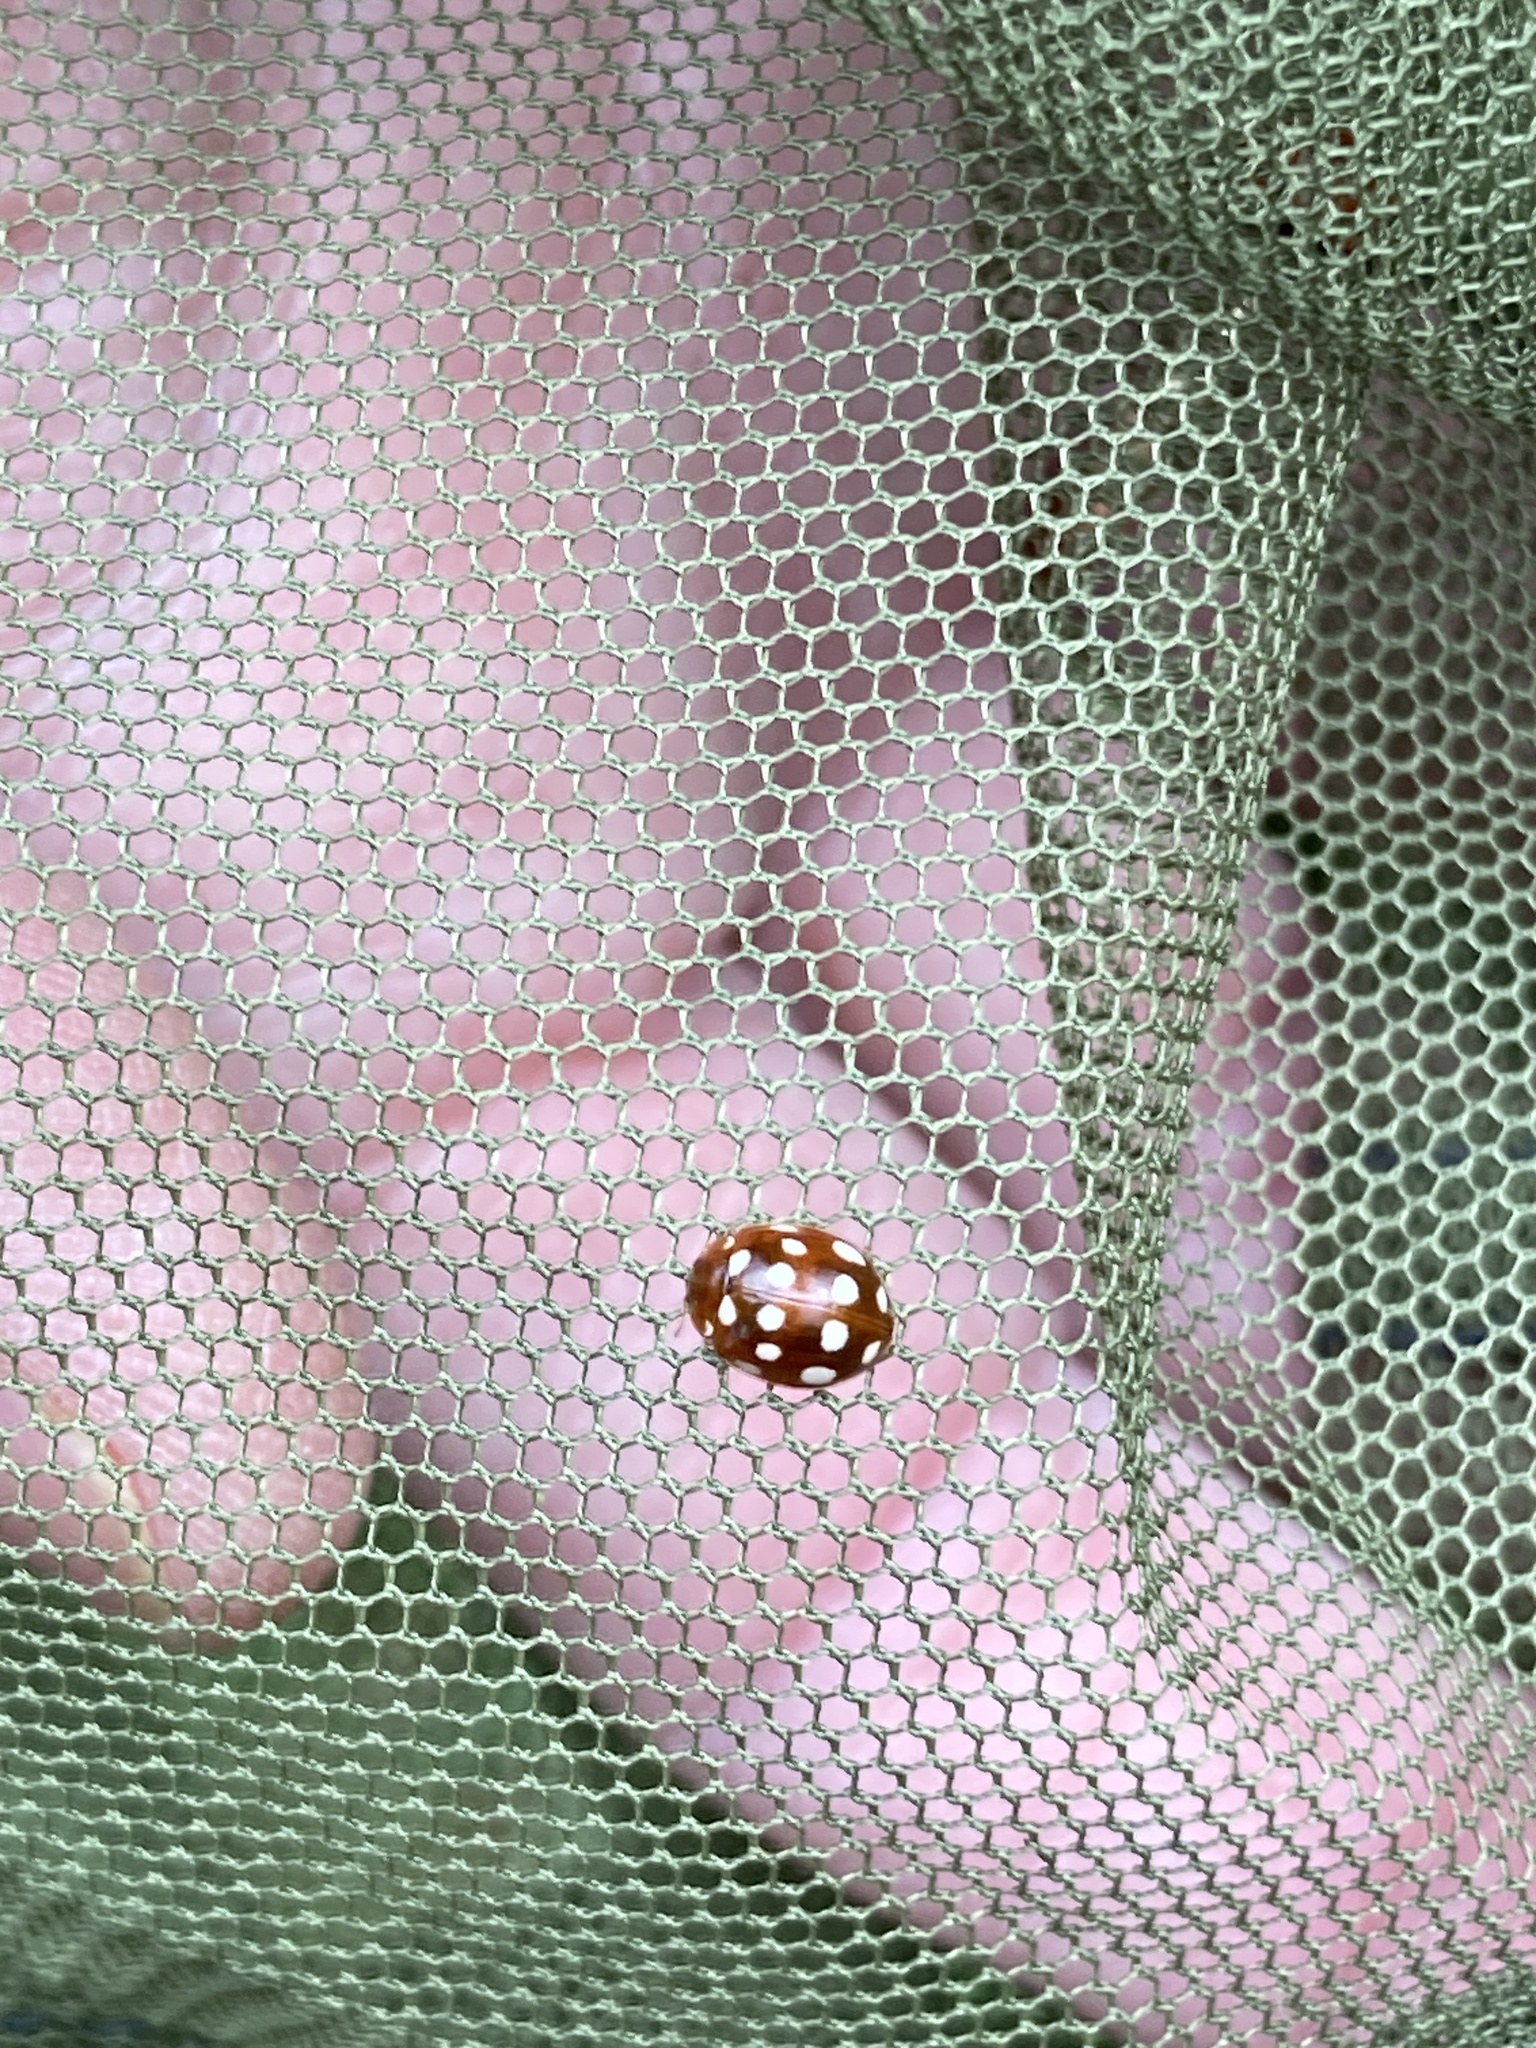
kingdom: Animalia
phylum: Arthropoda
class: Insecta
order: Coleoptera
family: Coccinellidae
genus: Calvia
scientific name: Calvia quatuordecimguttata
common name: Cream-spot ladybird
